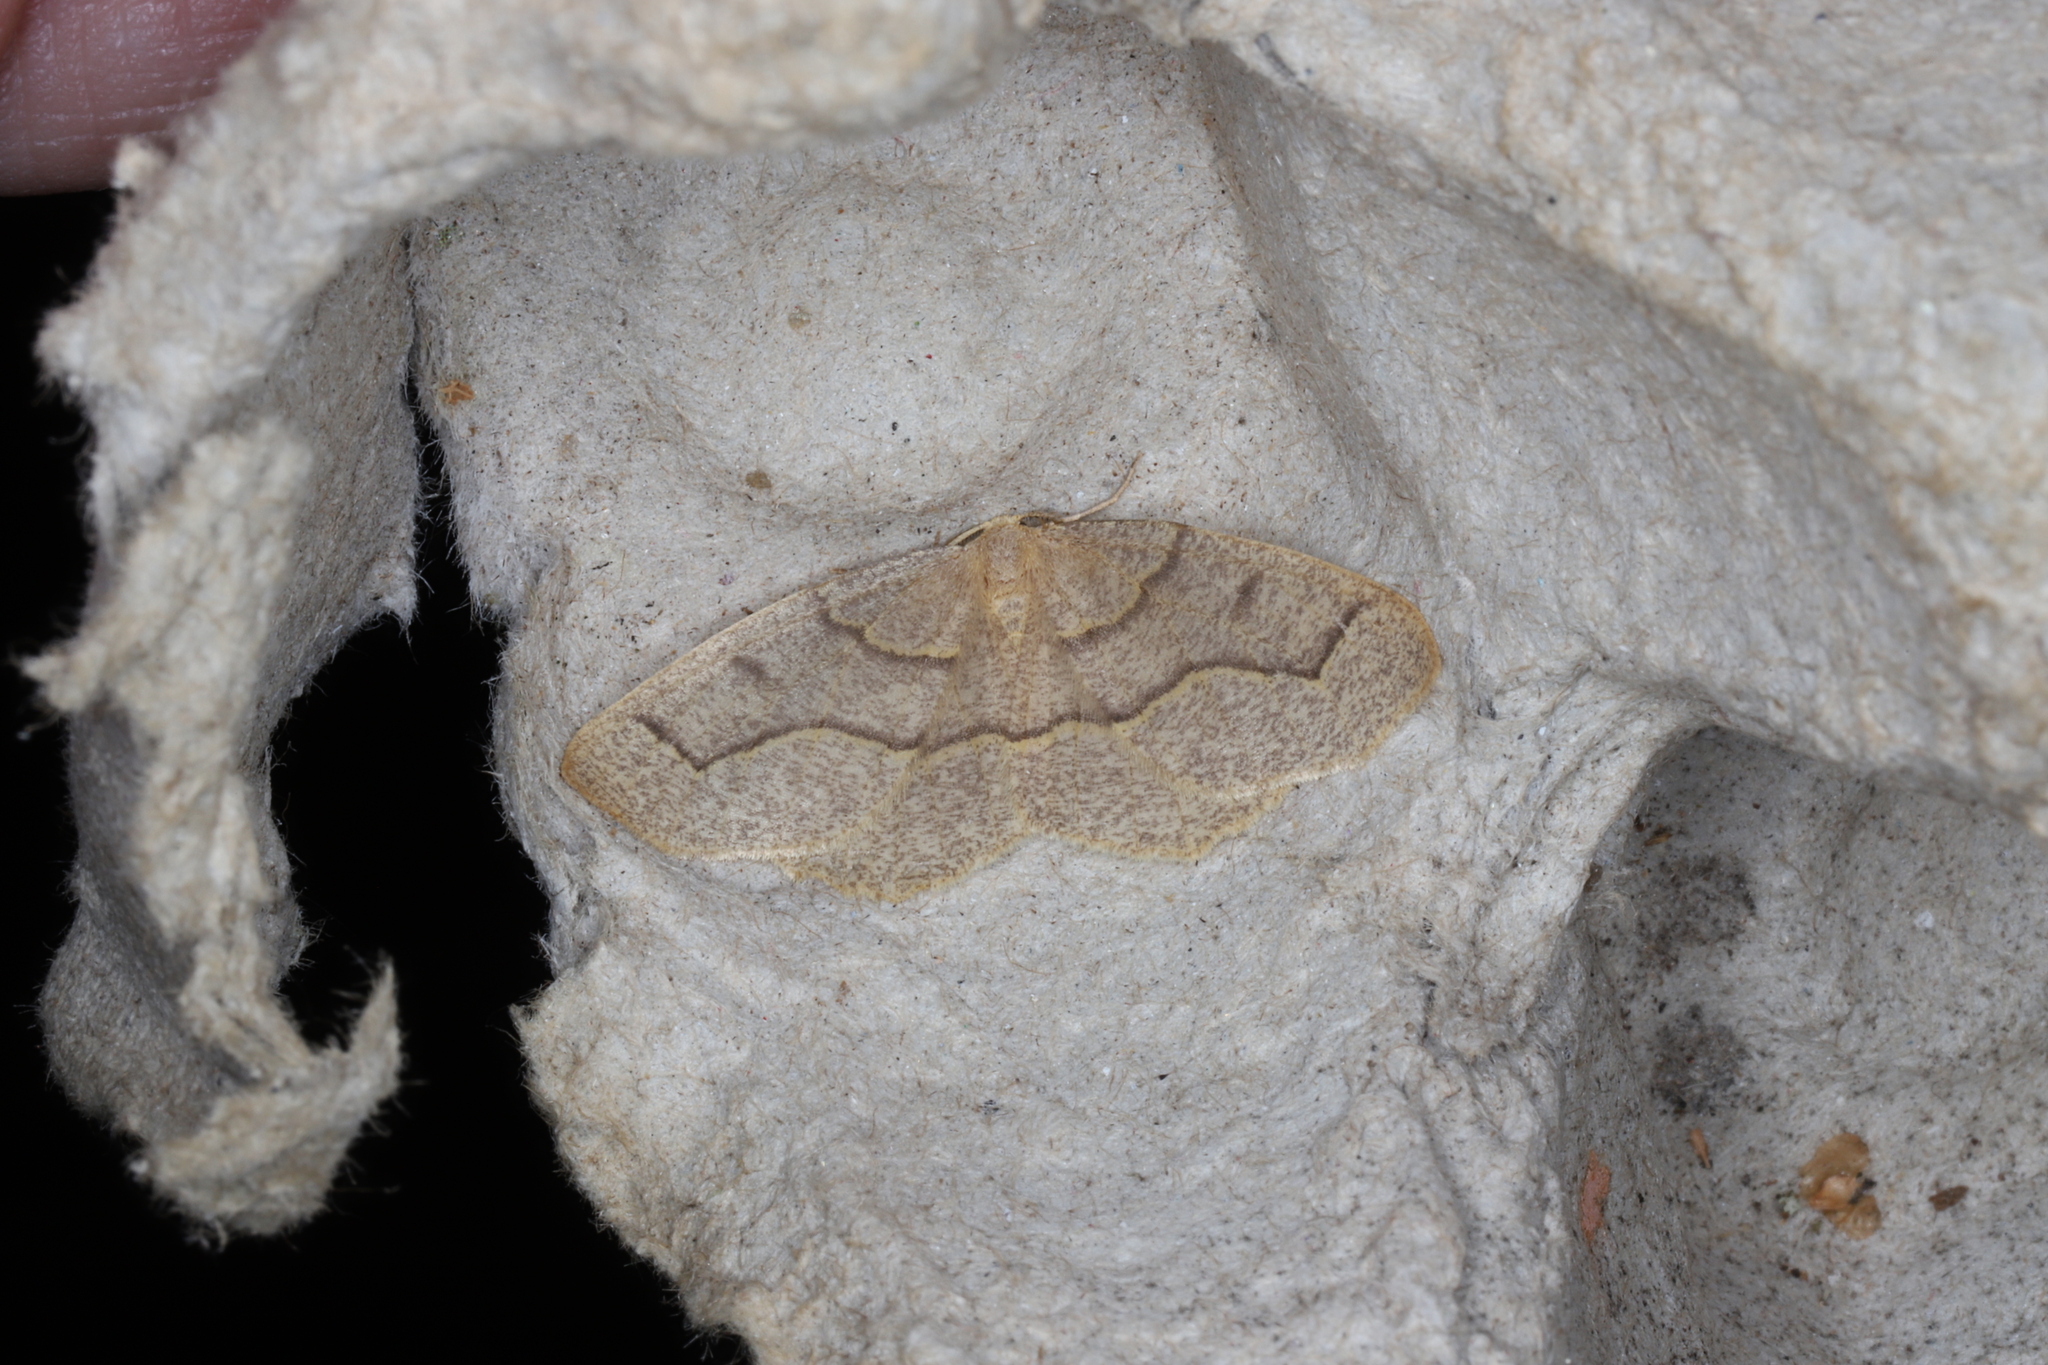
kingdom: Animalia
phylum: Arthropoda
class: Insecta
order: Lepidoptera
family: Geometridae
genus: Lambdina
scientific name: Lambdina fiscellaria
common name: Hemlock looper
